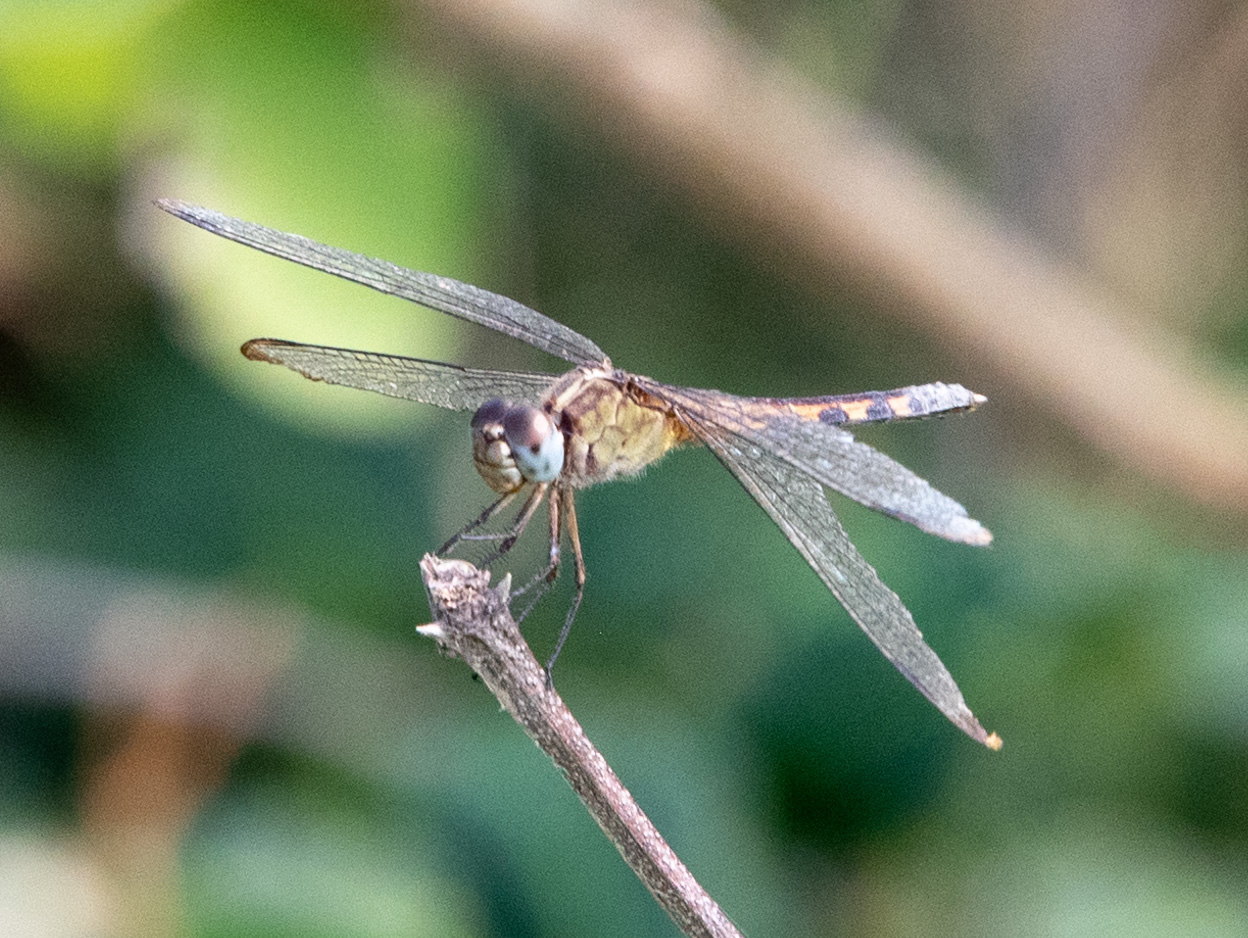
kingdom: Animalia
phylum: Arthropoda
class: Insecta
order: Odonata
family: Libellulidae
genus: Erythrodiplax
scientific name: Erythrodiplax umbrata
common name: Band-winged dragonlet
